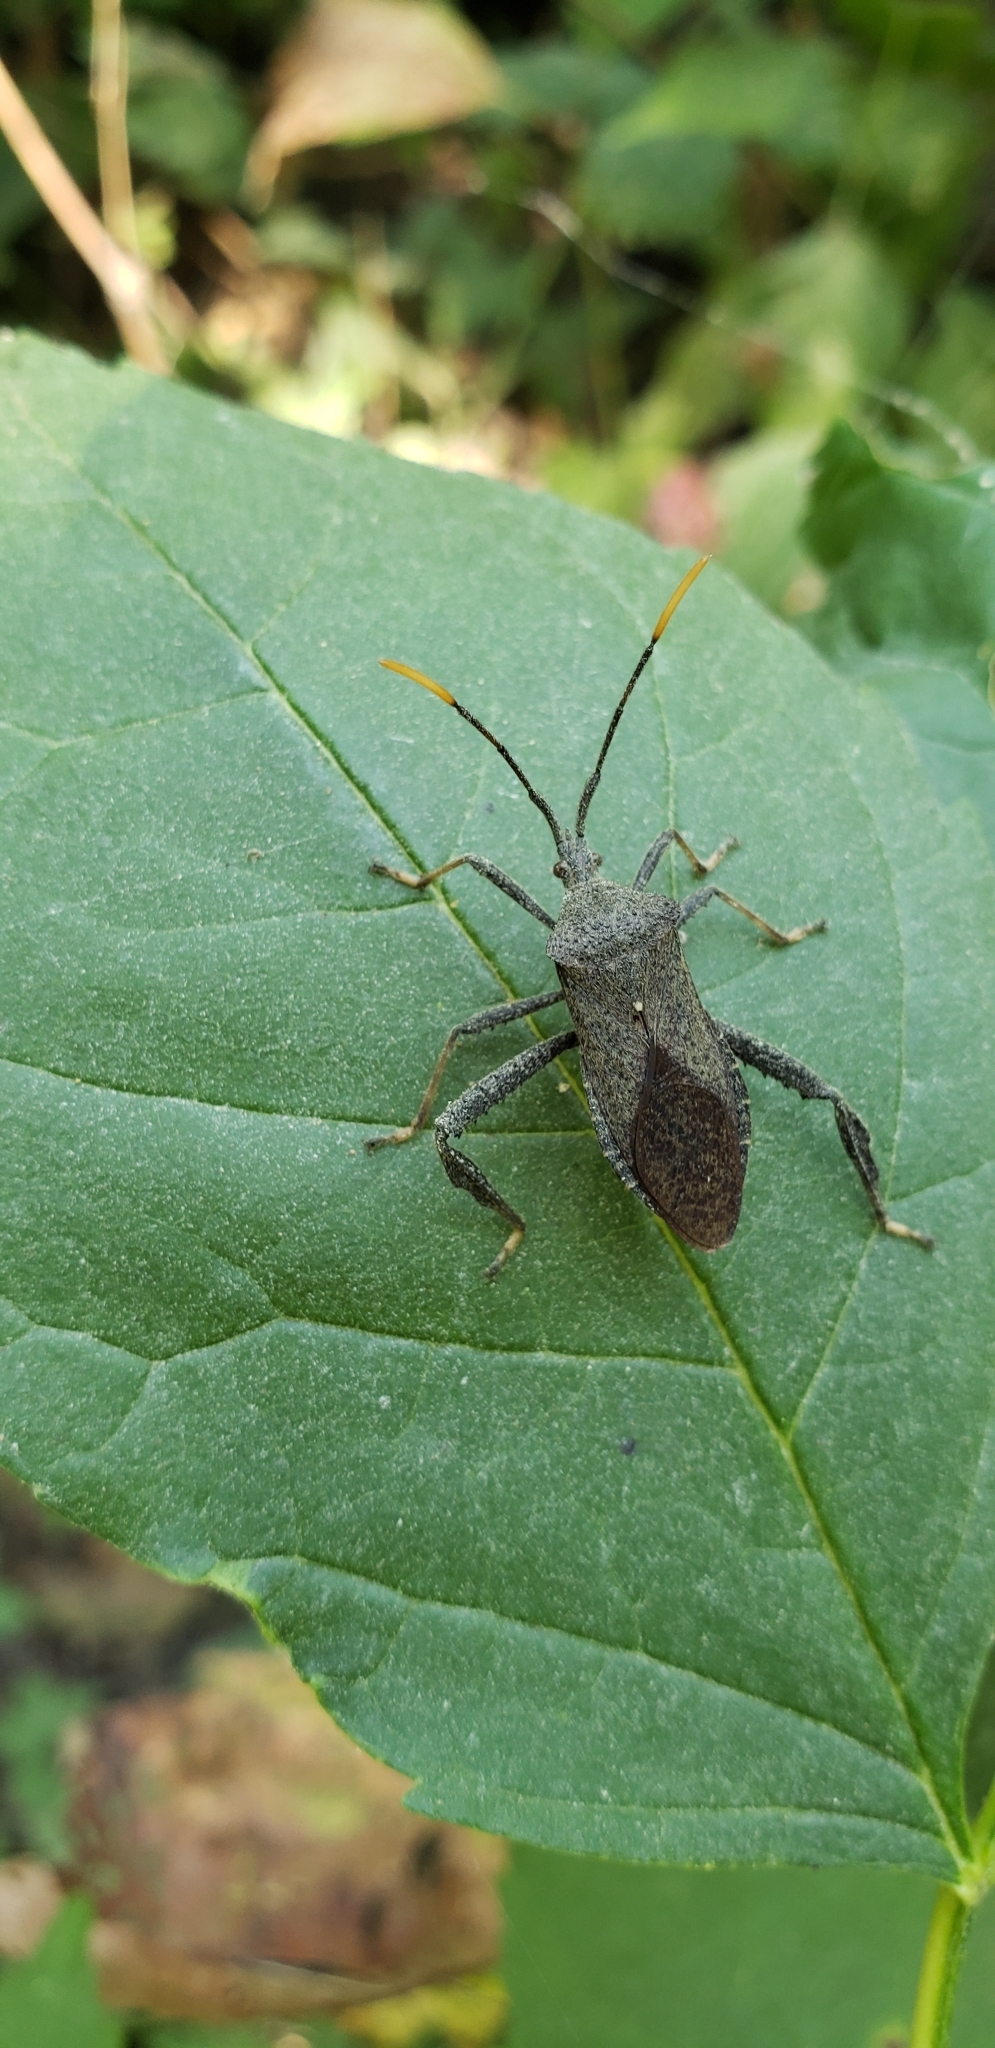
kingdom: Animalia
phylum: Arthropoda
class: Insecta
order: Hemiptera
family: Coreidae
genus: Acanthocephala
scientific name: Acanthocephala terminalis
